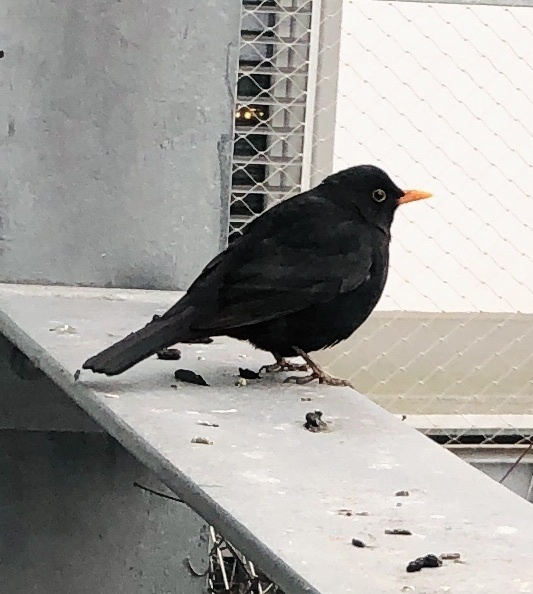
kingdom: Animalia
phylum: Chordata
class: Aves
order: Passeriformes
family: Turdidae
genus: Turdus
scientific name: Turdus merula
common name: Common blackbird
